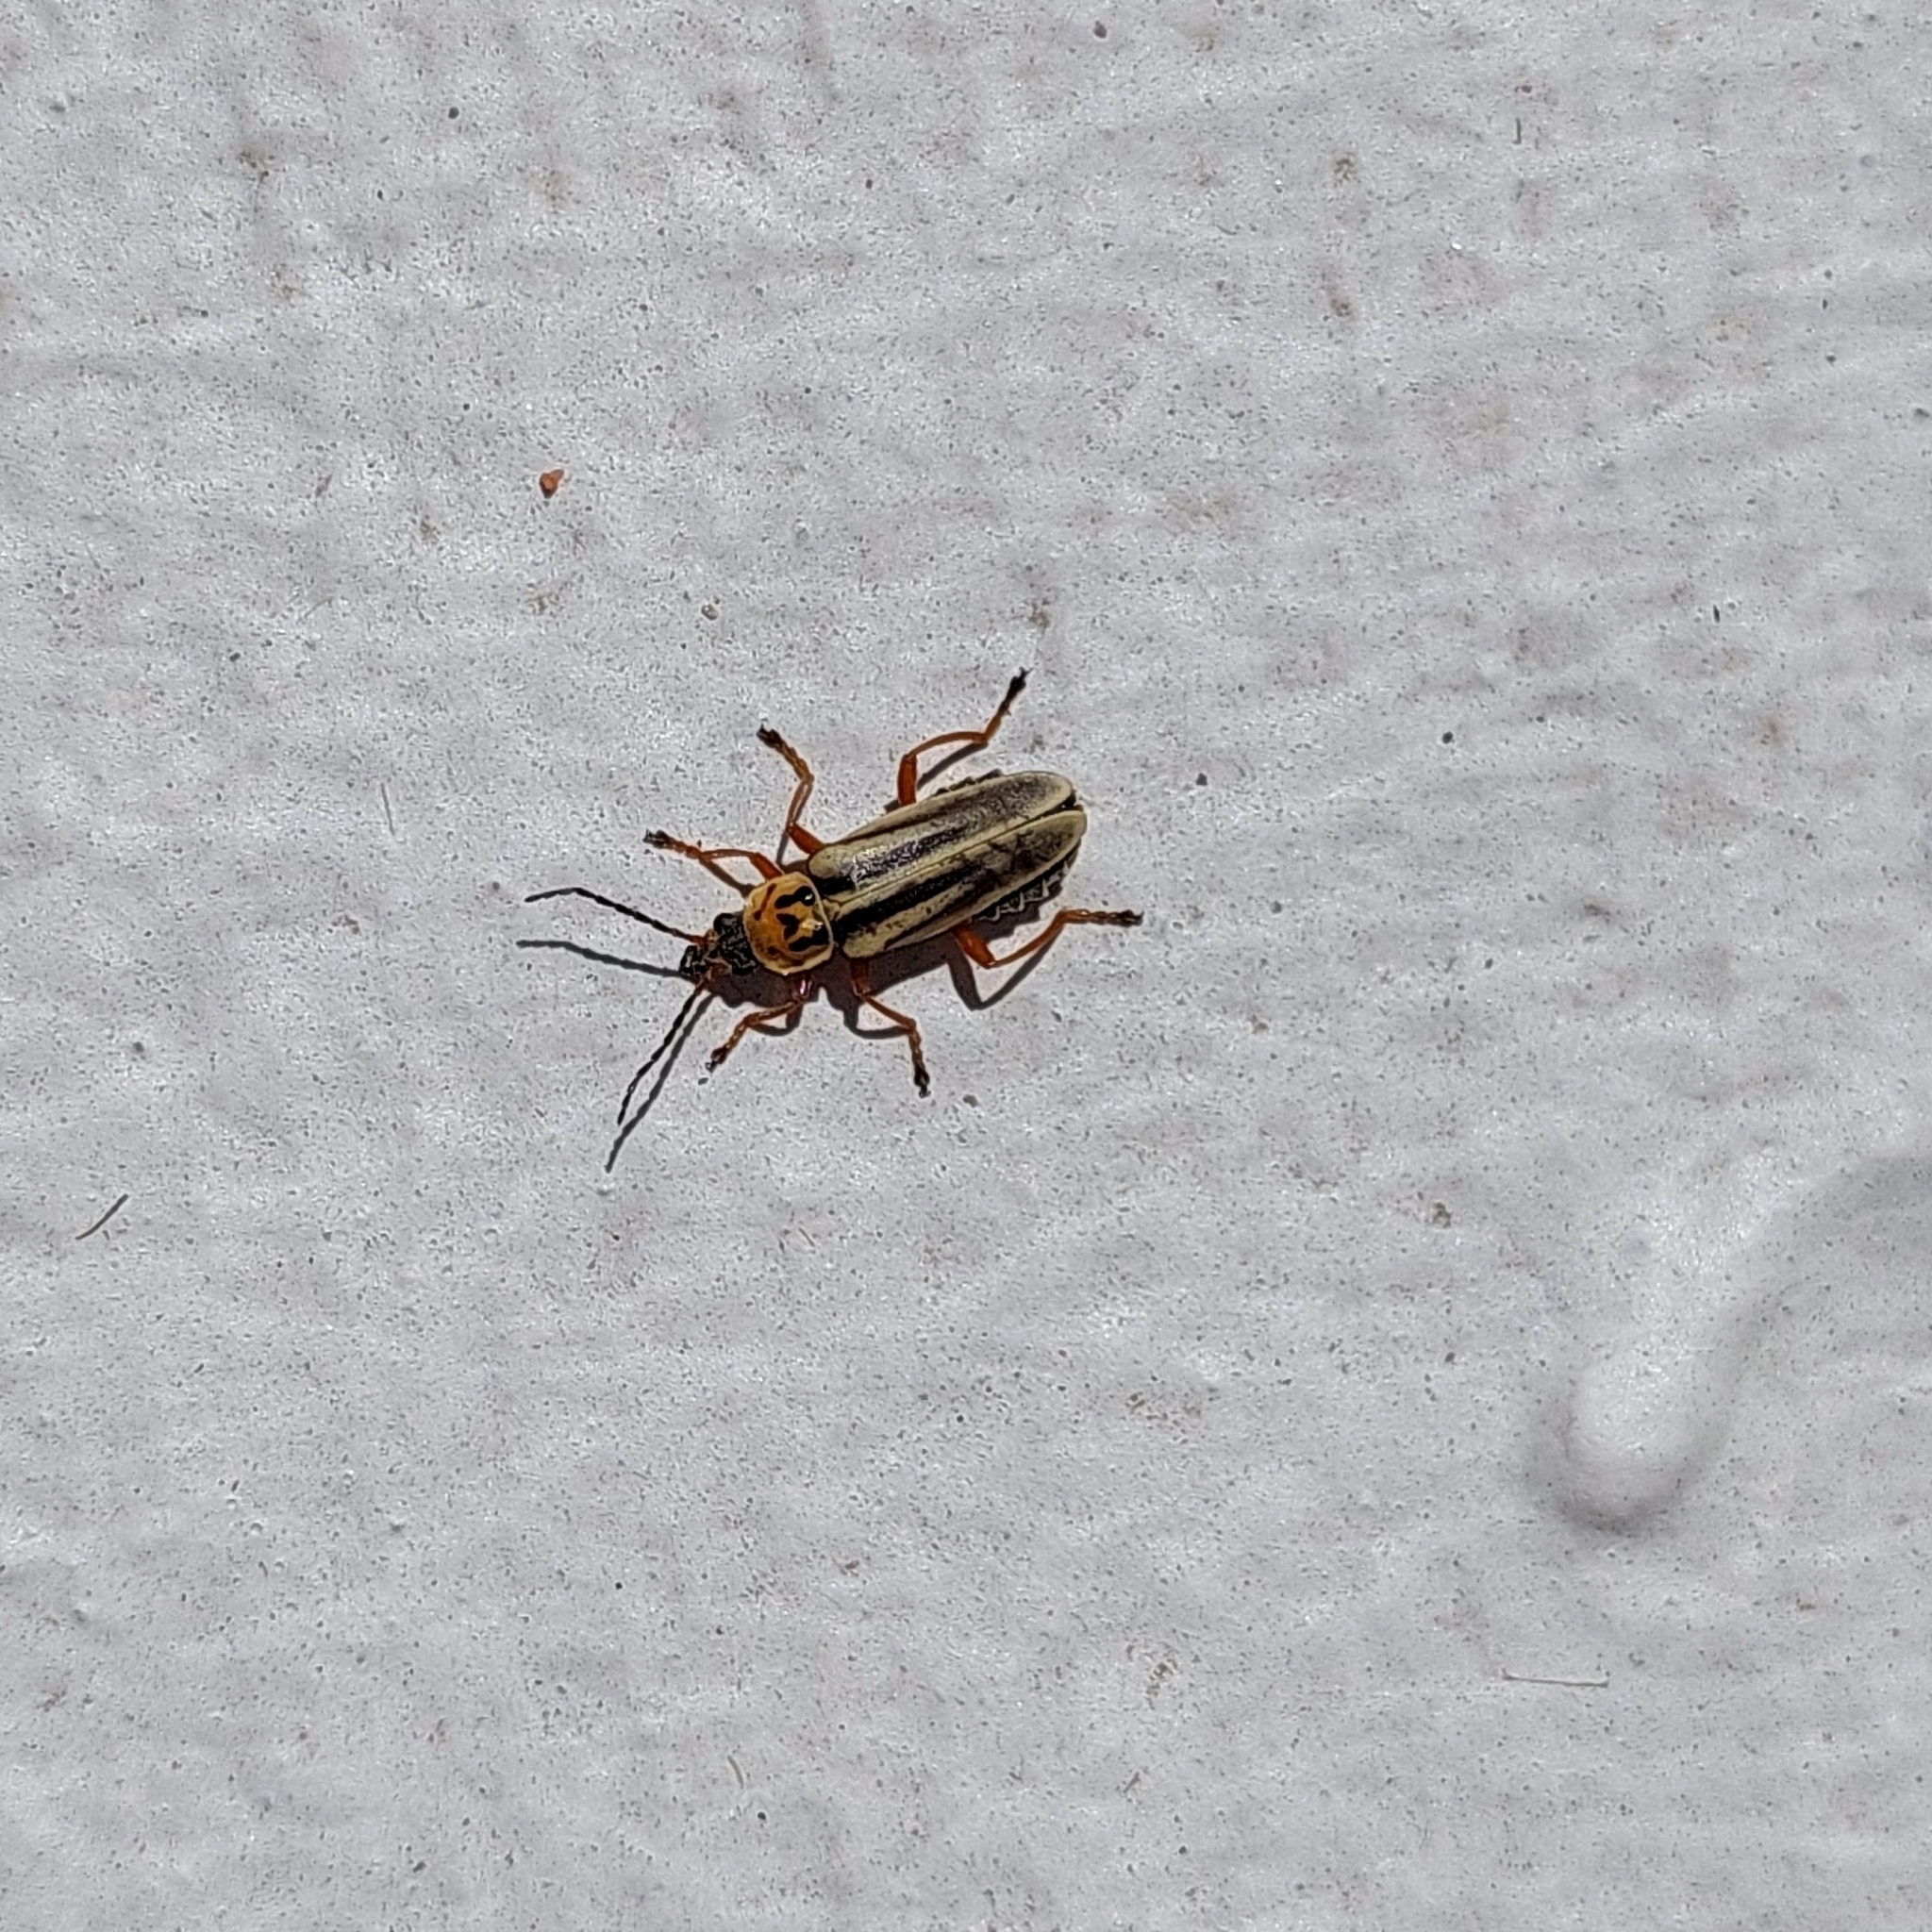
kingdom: Animalia
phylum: Arthropoda
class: Insecta
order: Coleoptera
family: Cantharidae
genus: Chauliognathus
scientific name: Chauliognathus
